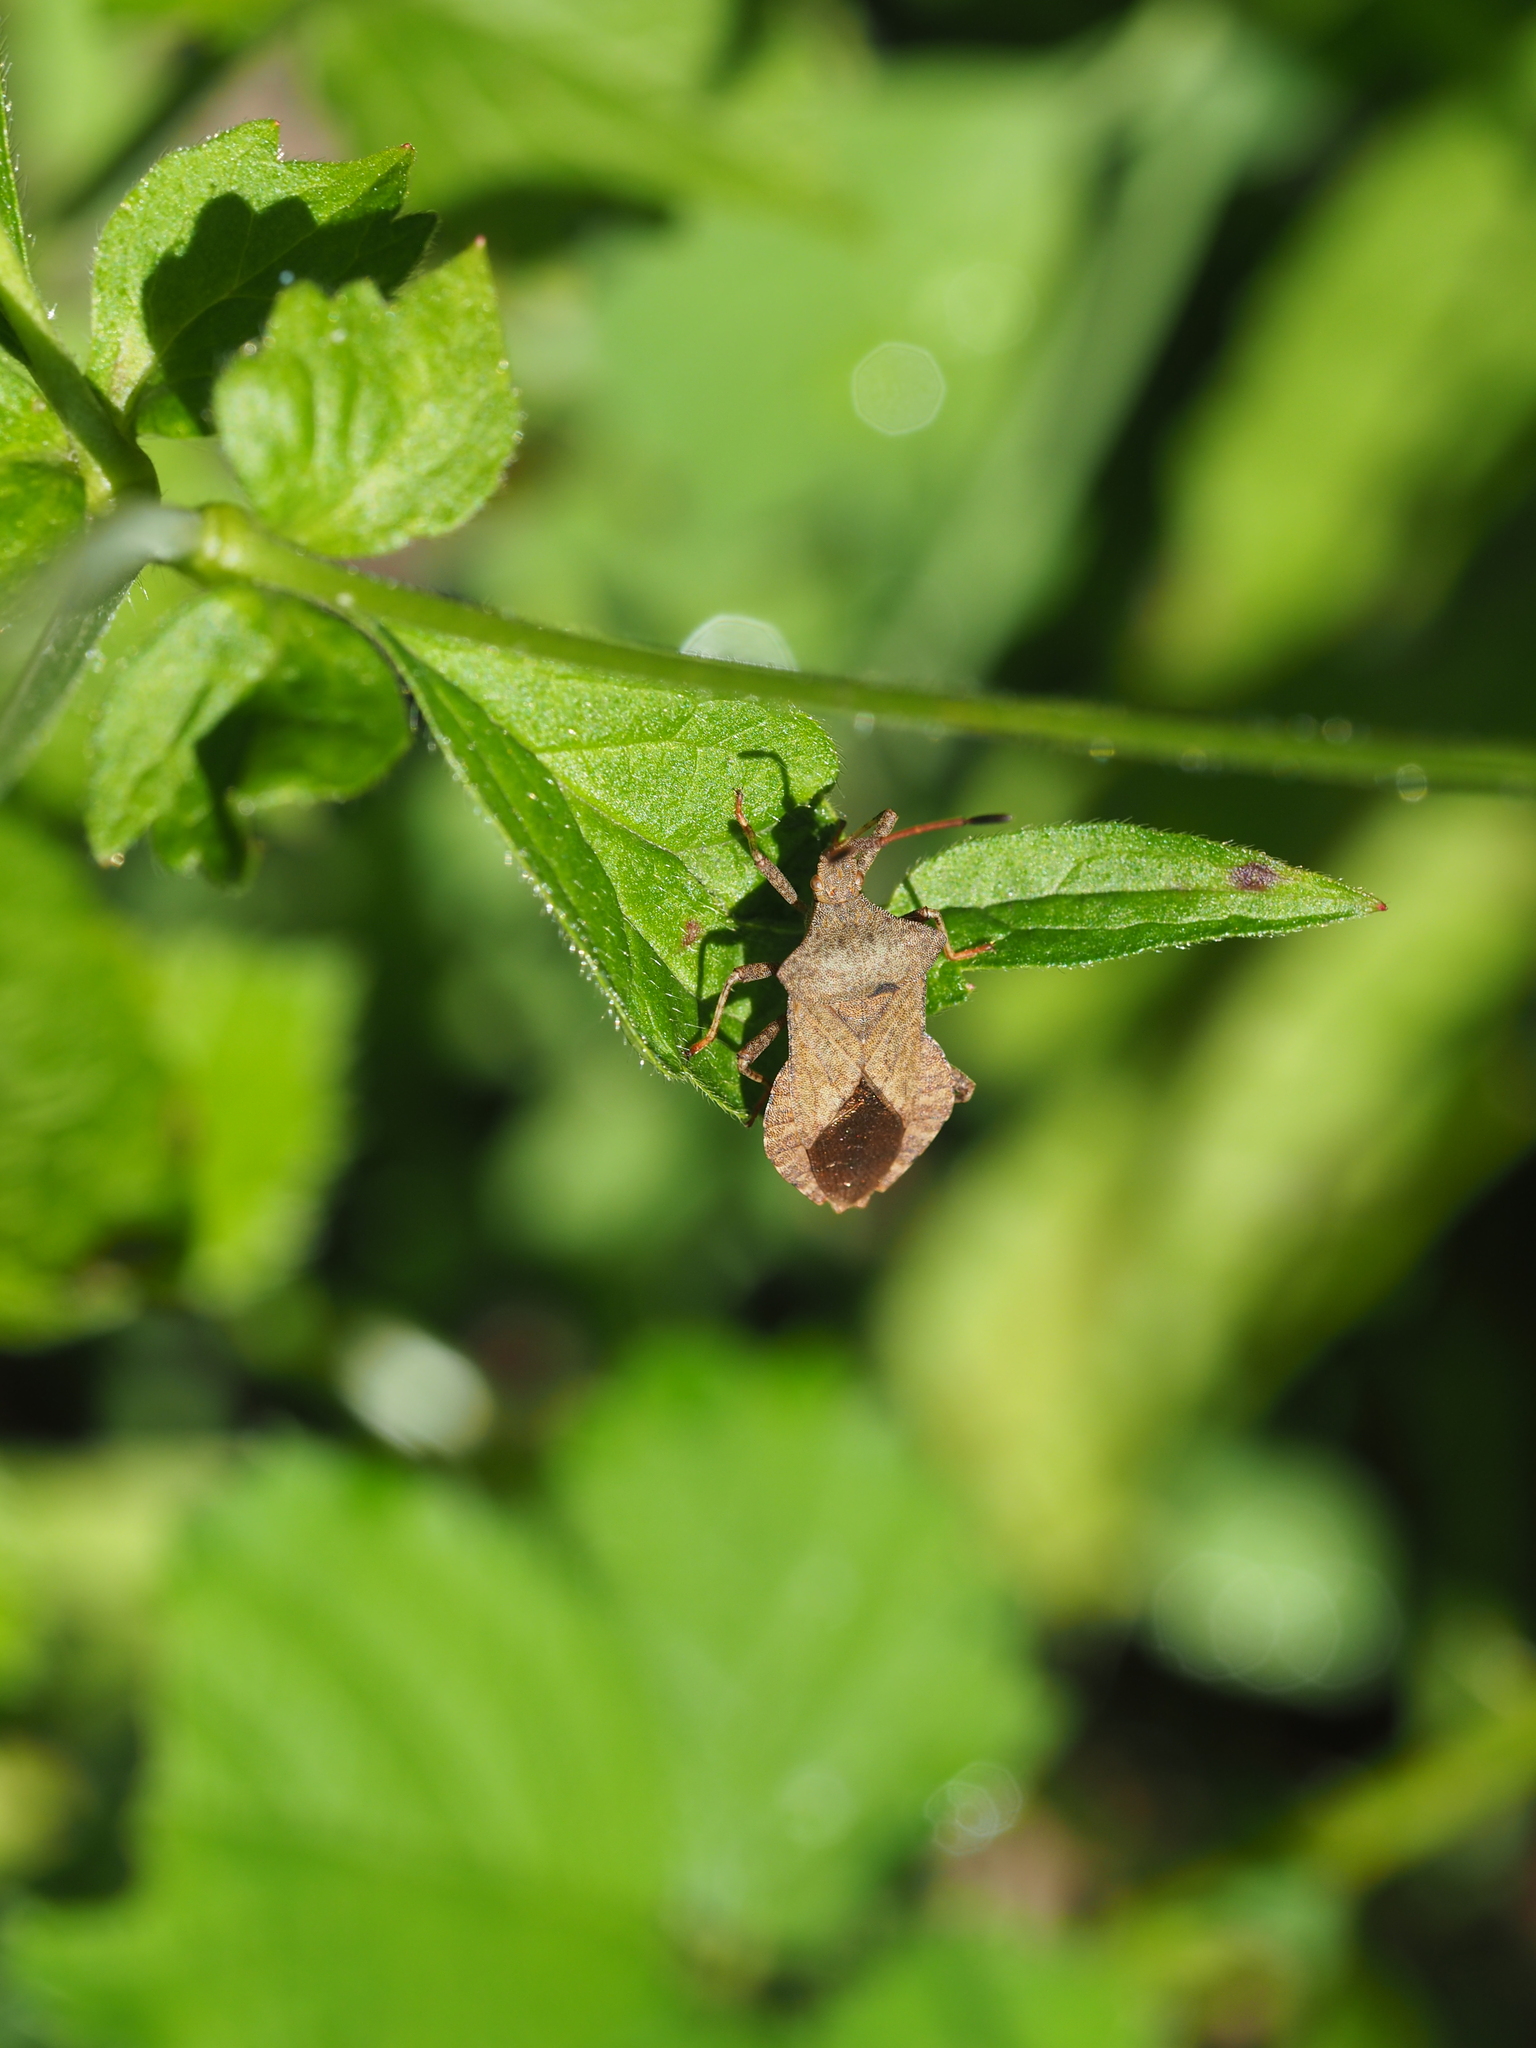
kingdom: Animalia
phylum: Arthropoda
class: Insecta
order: Hemiptera
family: Coreidae
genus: Coreus
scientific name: Coreus marginatus
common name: Dock bug
